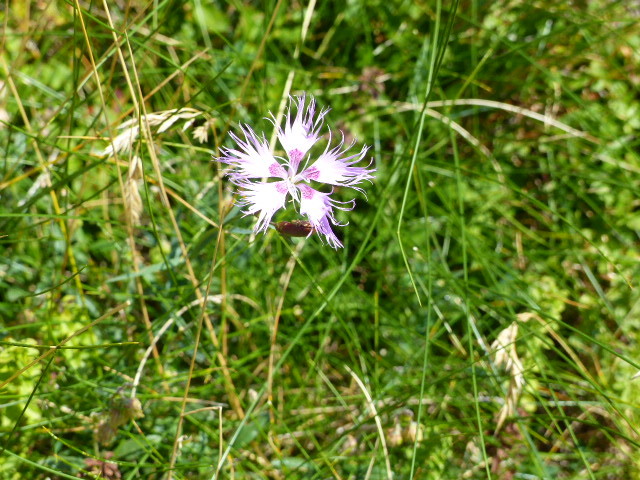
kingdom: Plantae
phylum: Tracheophyta
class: Magnoliopsida
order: Caryophyllales
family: Caryophyllaceae
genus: Dianthus
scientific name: Dianthus hyssopifolius
